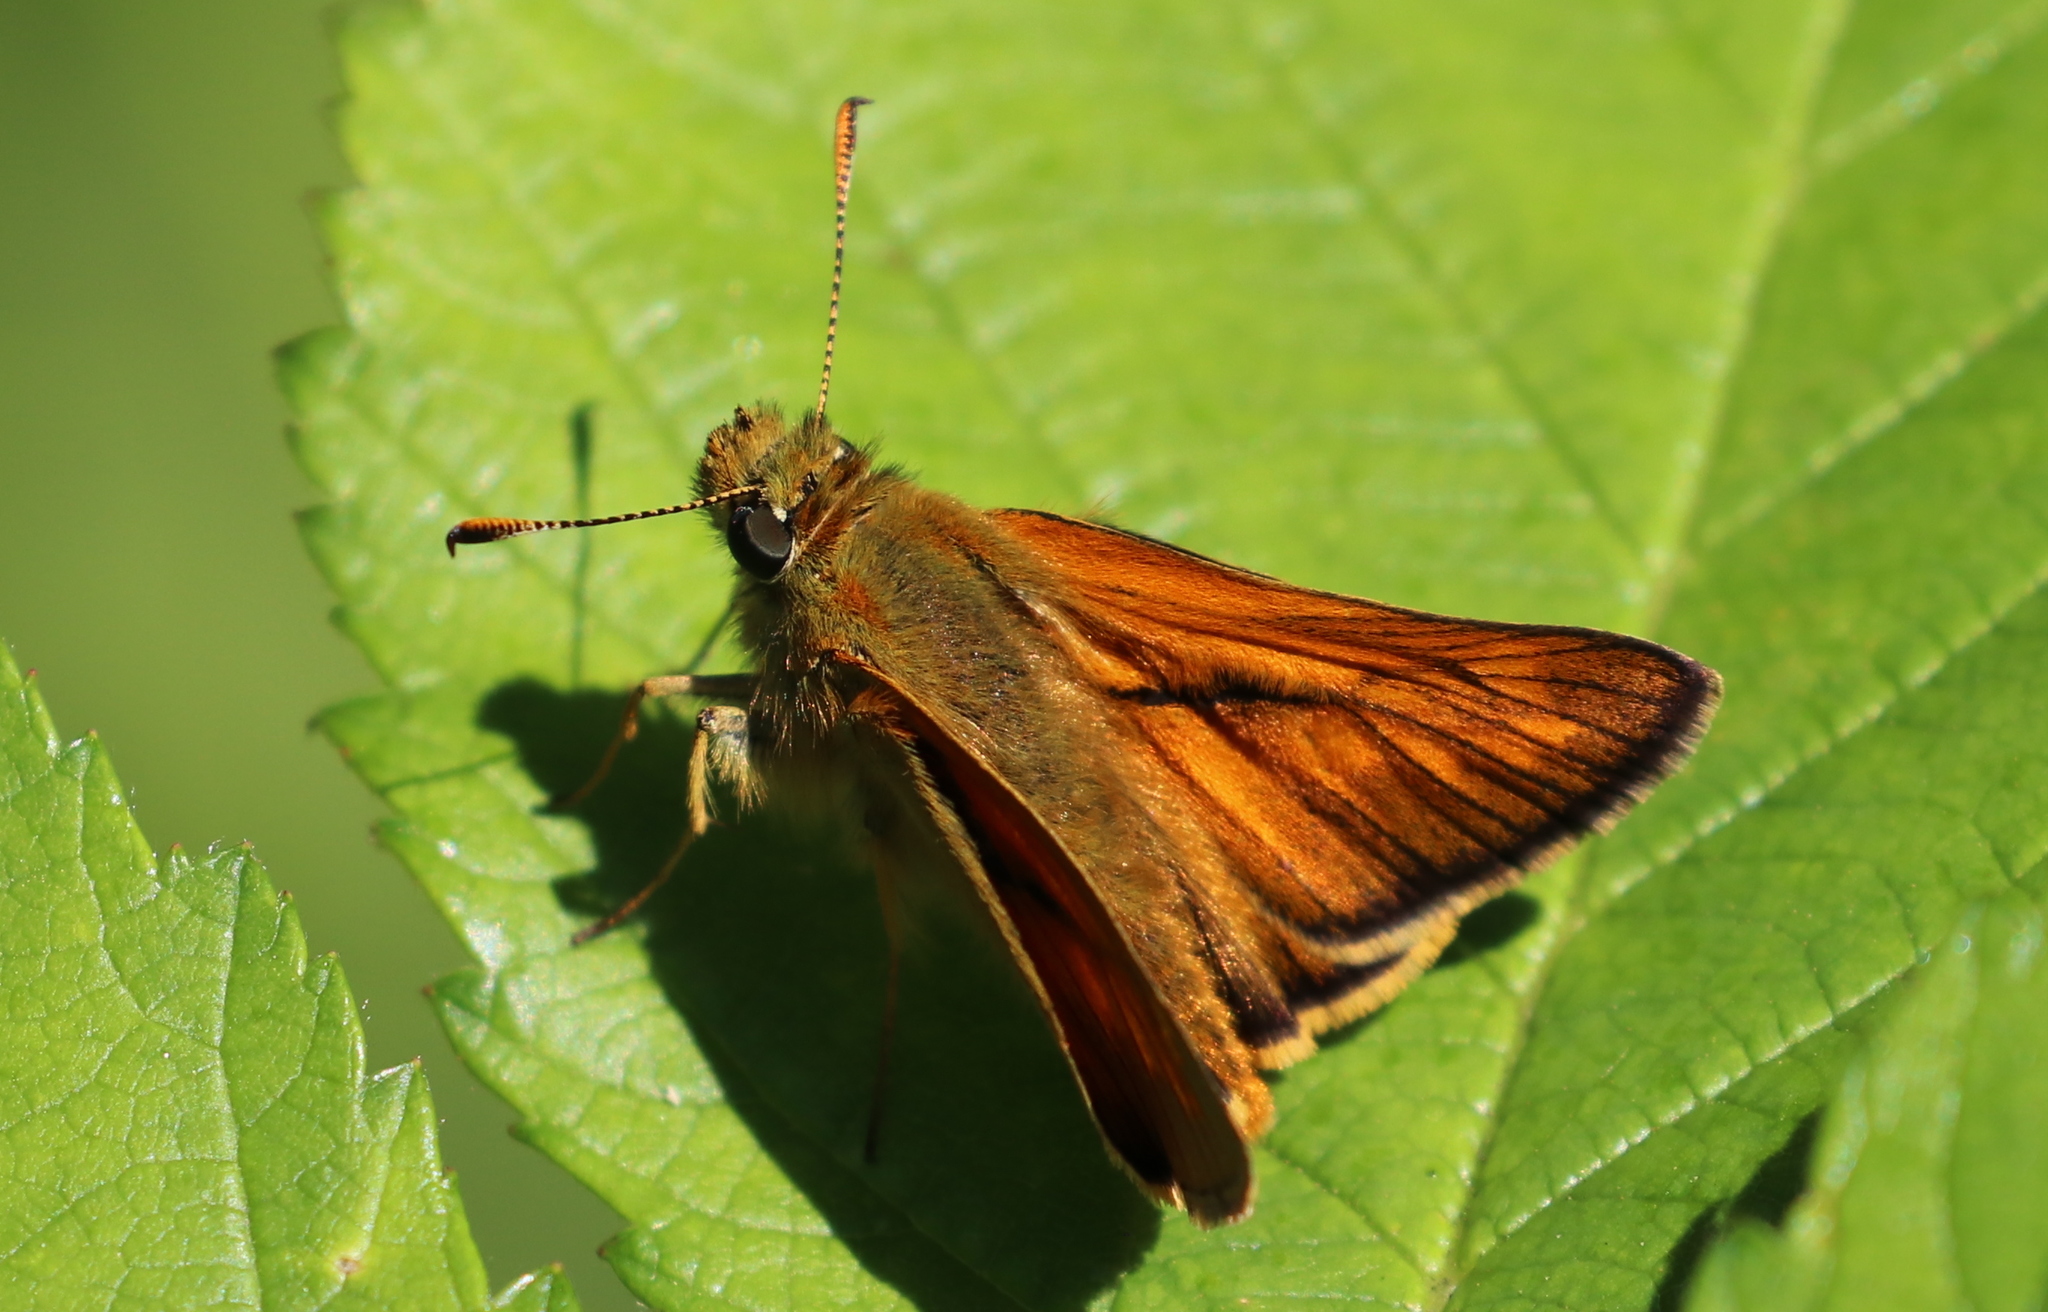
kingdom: Animalia
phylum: Arthropoda
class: Insecta
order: Lepidoptera
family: Hesperiidae
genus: Ochlodes
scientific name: Ochlodes venata
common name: Large skipper
